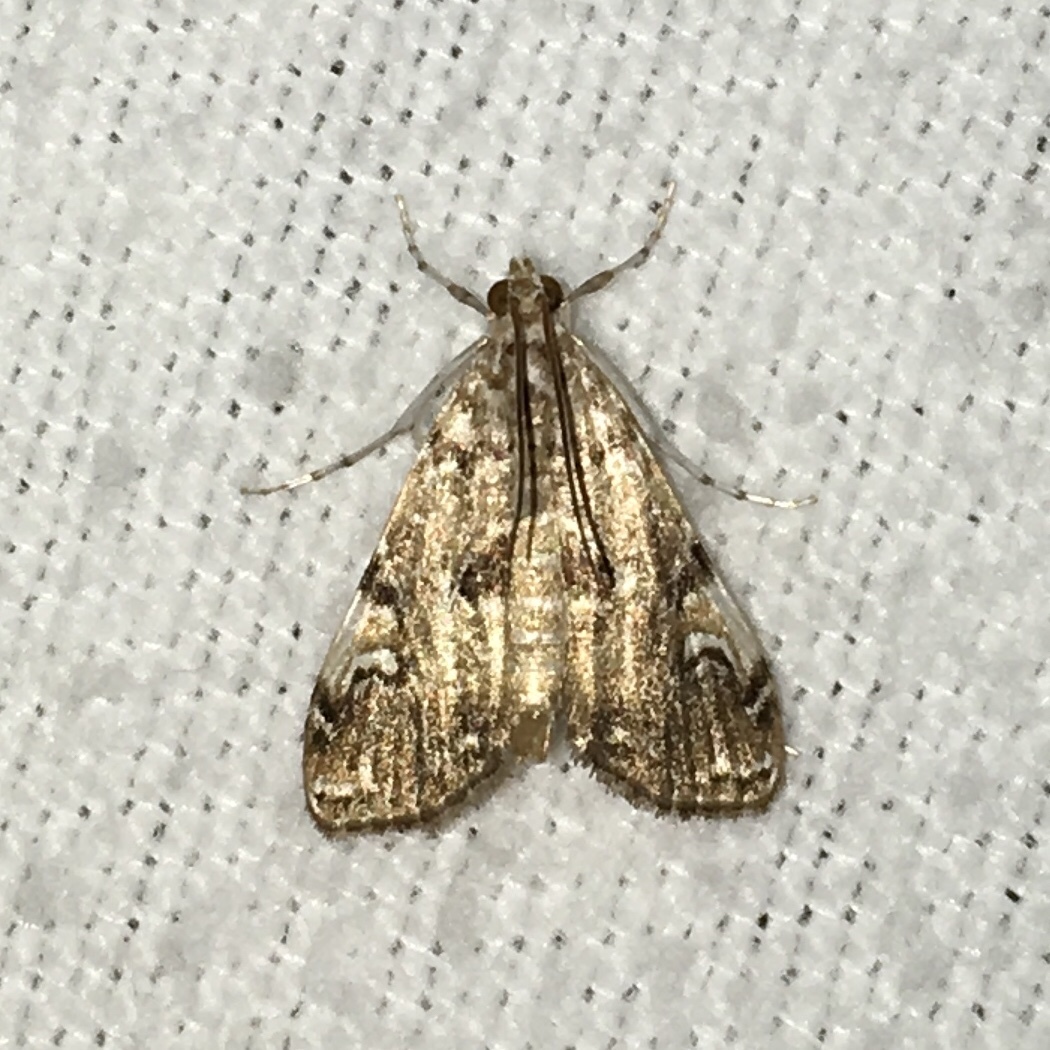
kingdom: Animalia
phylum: Arthropoda
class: Insecta
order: Lepidoptera
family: Crambidae
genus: Elophila
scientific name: Elophila gyralis
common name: Waterlily borer moth
